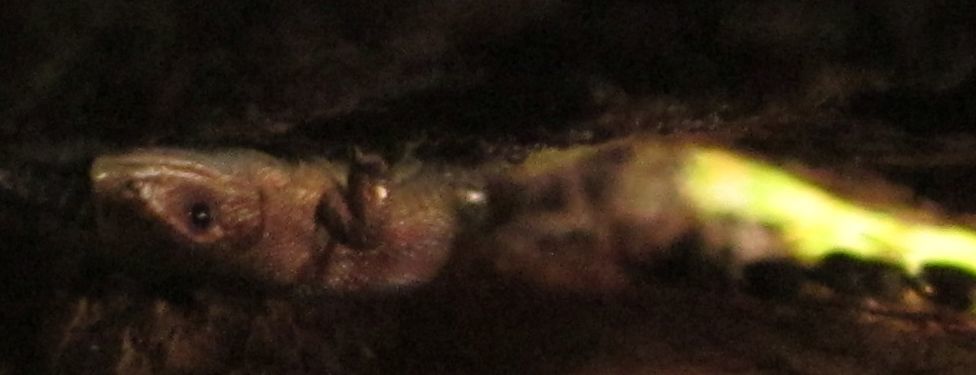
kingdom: Animalia
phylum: Chordata
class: Squamata
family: Lacertidae
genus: Zootoca
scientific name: Zootoca vivipara
